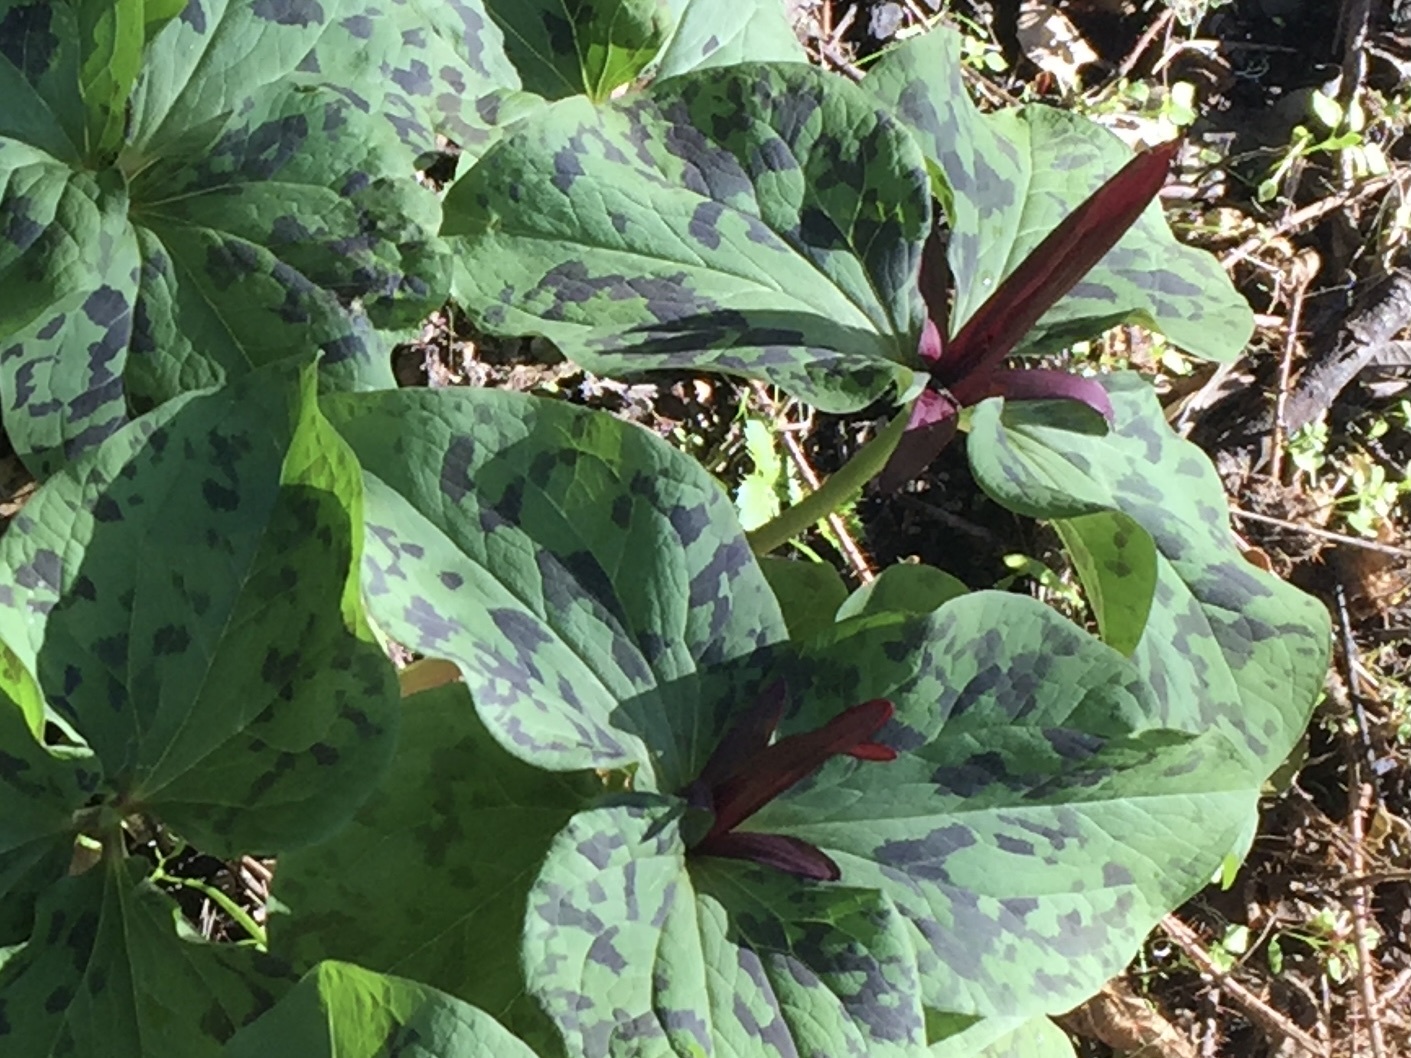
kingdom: Plantae
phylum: Tracheophyta
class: Liliopsida
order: Liliales
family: Melanthiaceae
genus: Trillium
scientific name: Trillium angustipetalum
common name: Narrow-petaled trillium
